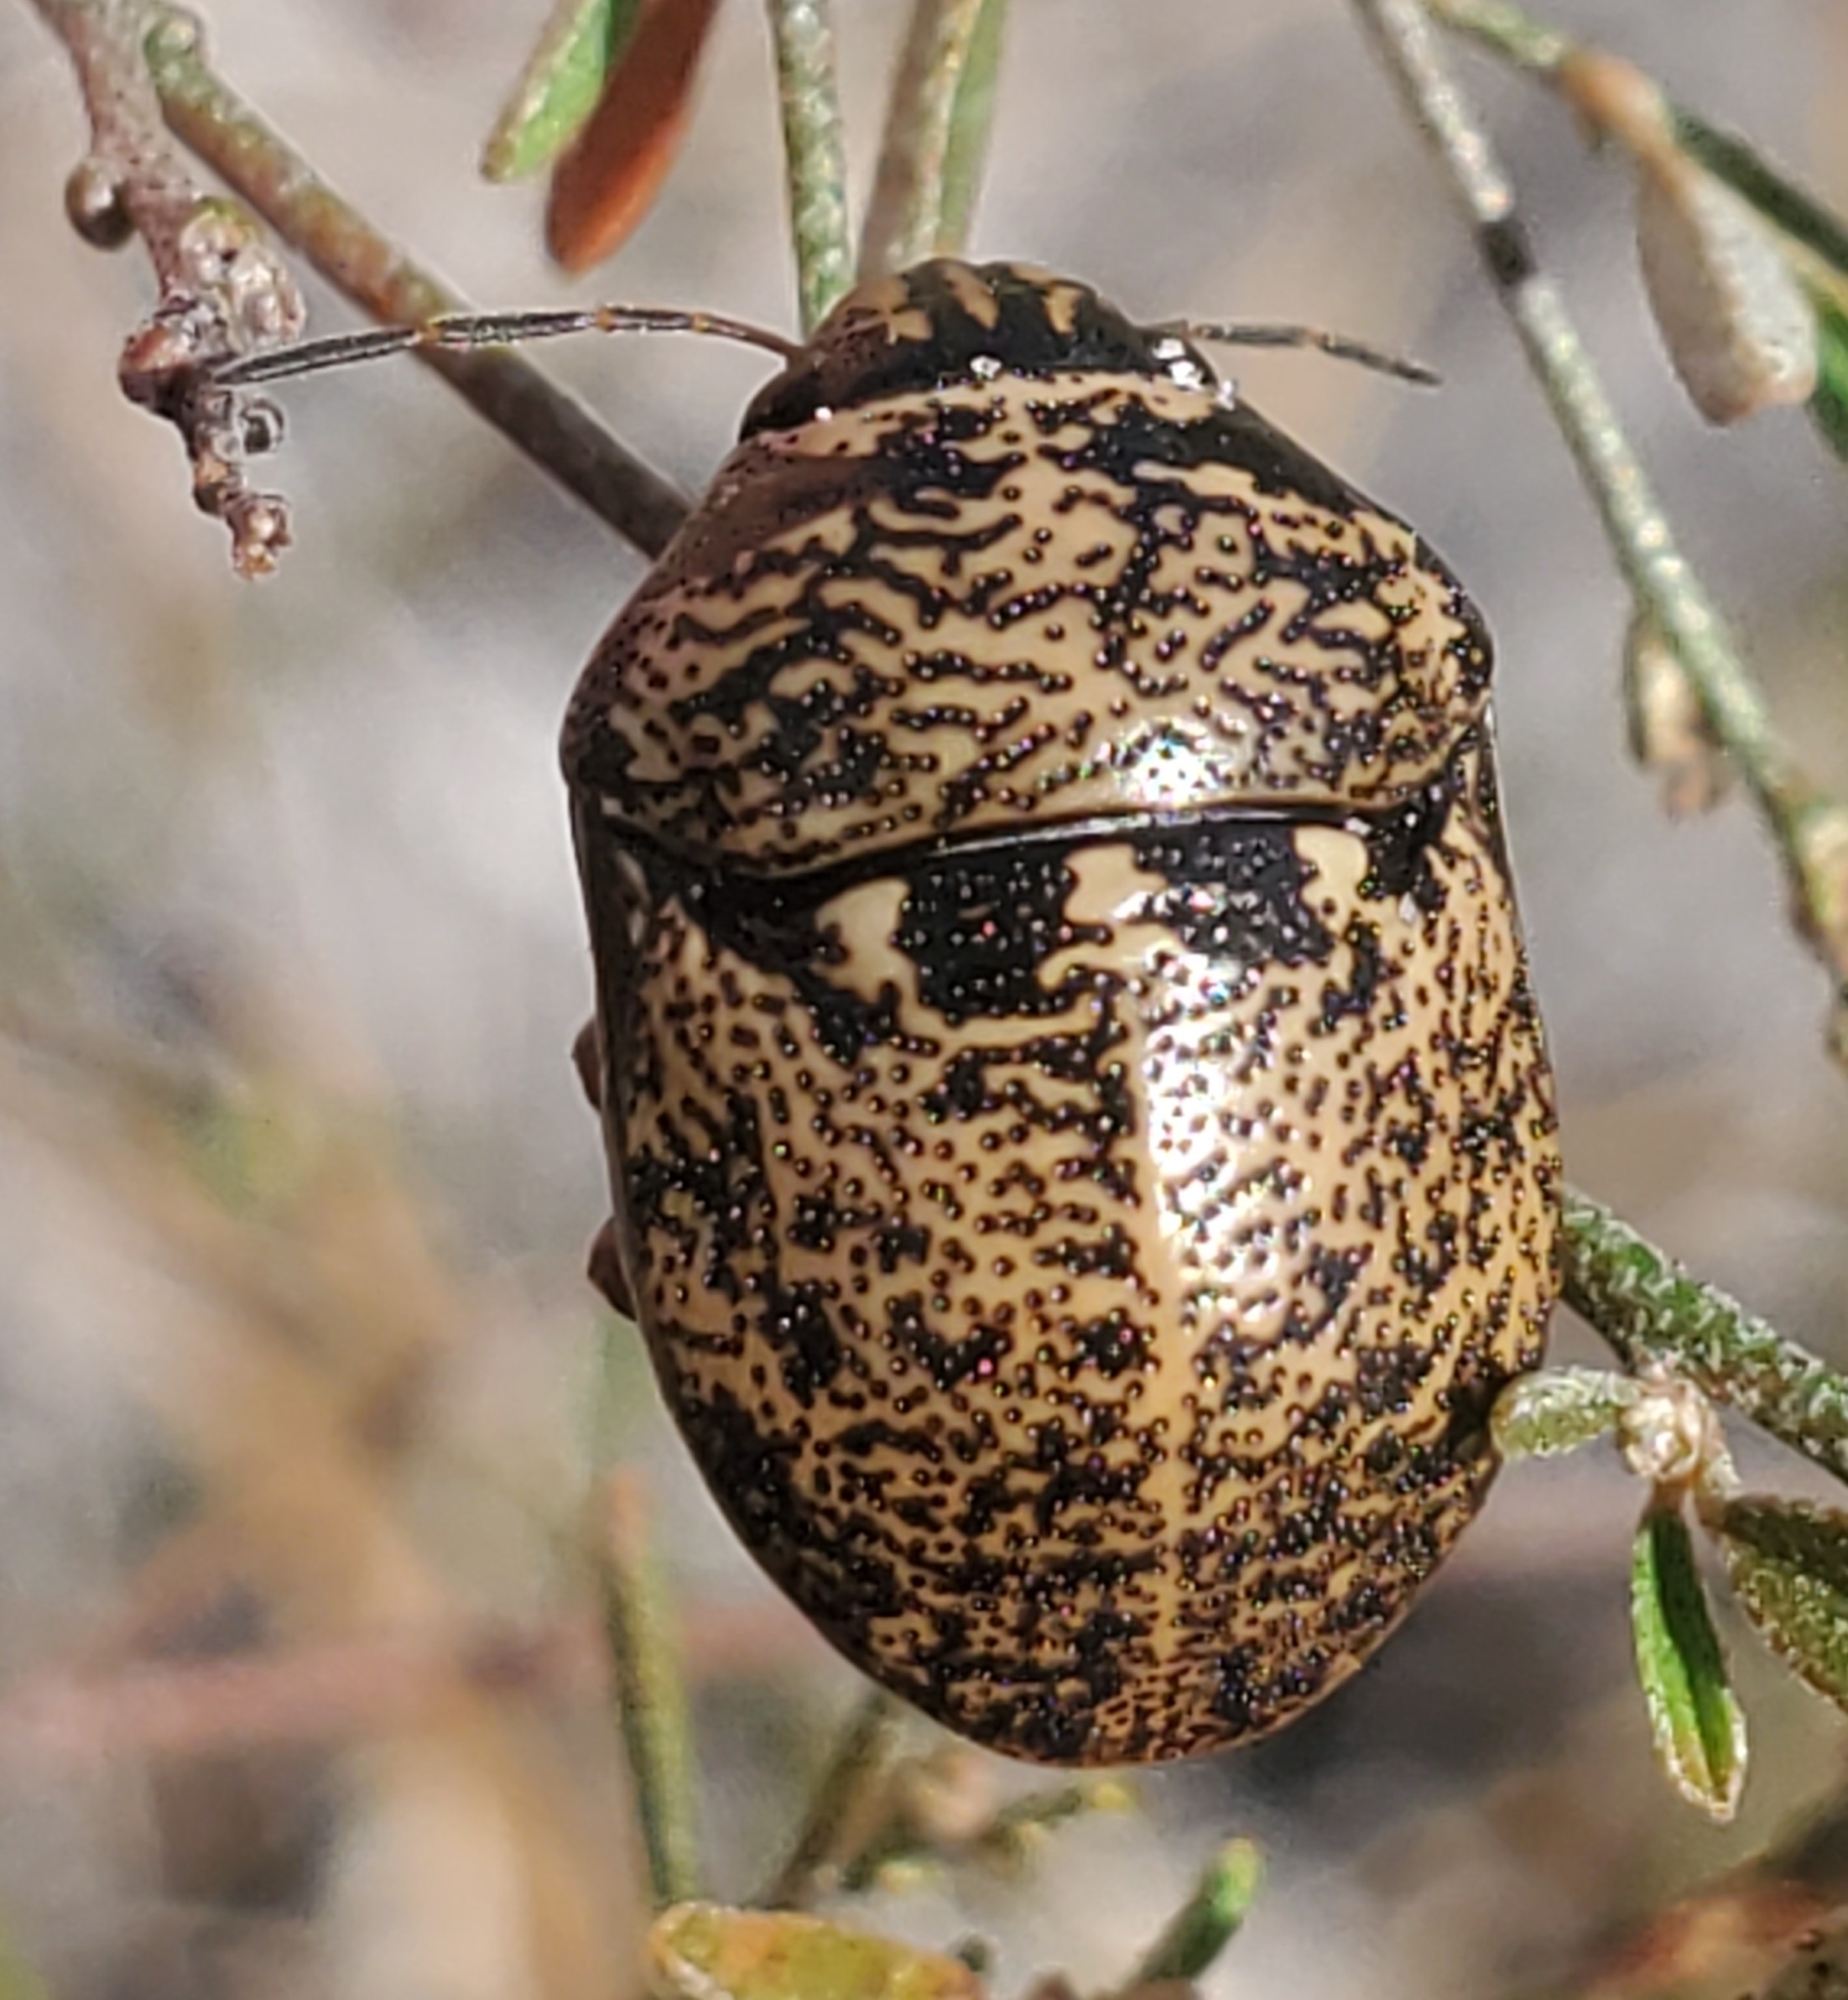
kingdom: Animalia
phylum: Arthropoda
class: Insecta
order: Hemiptera
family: Scutelleridae
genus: Orsilochides
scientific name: Orsilochides guttata
